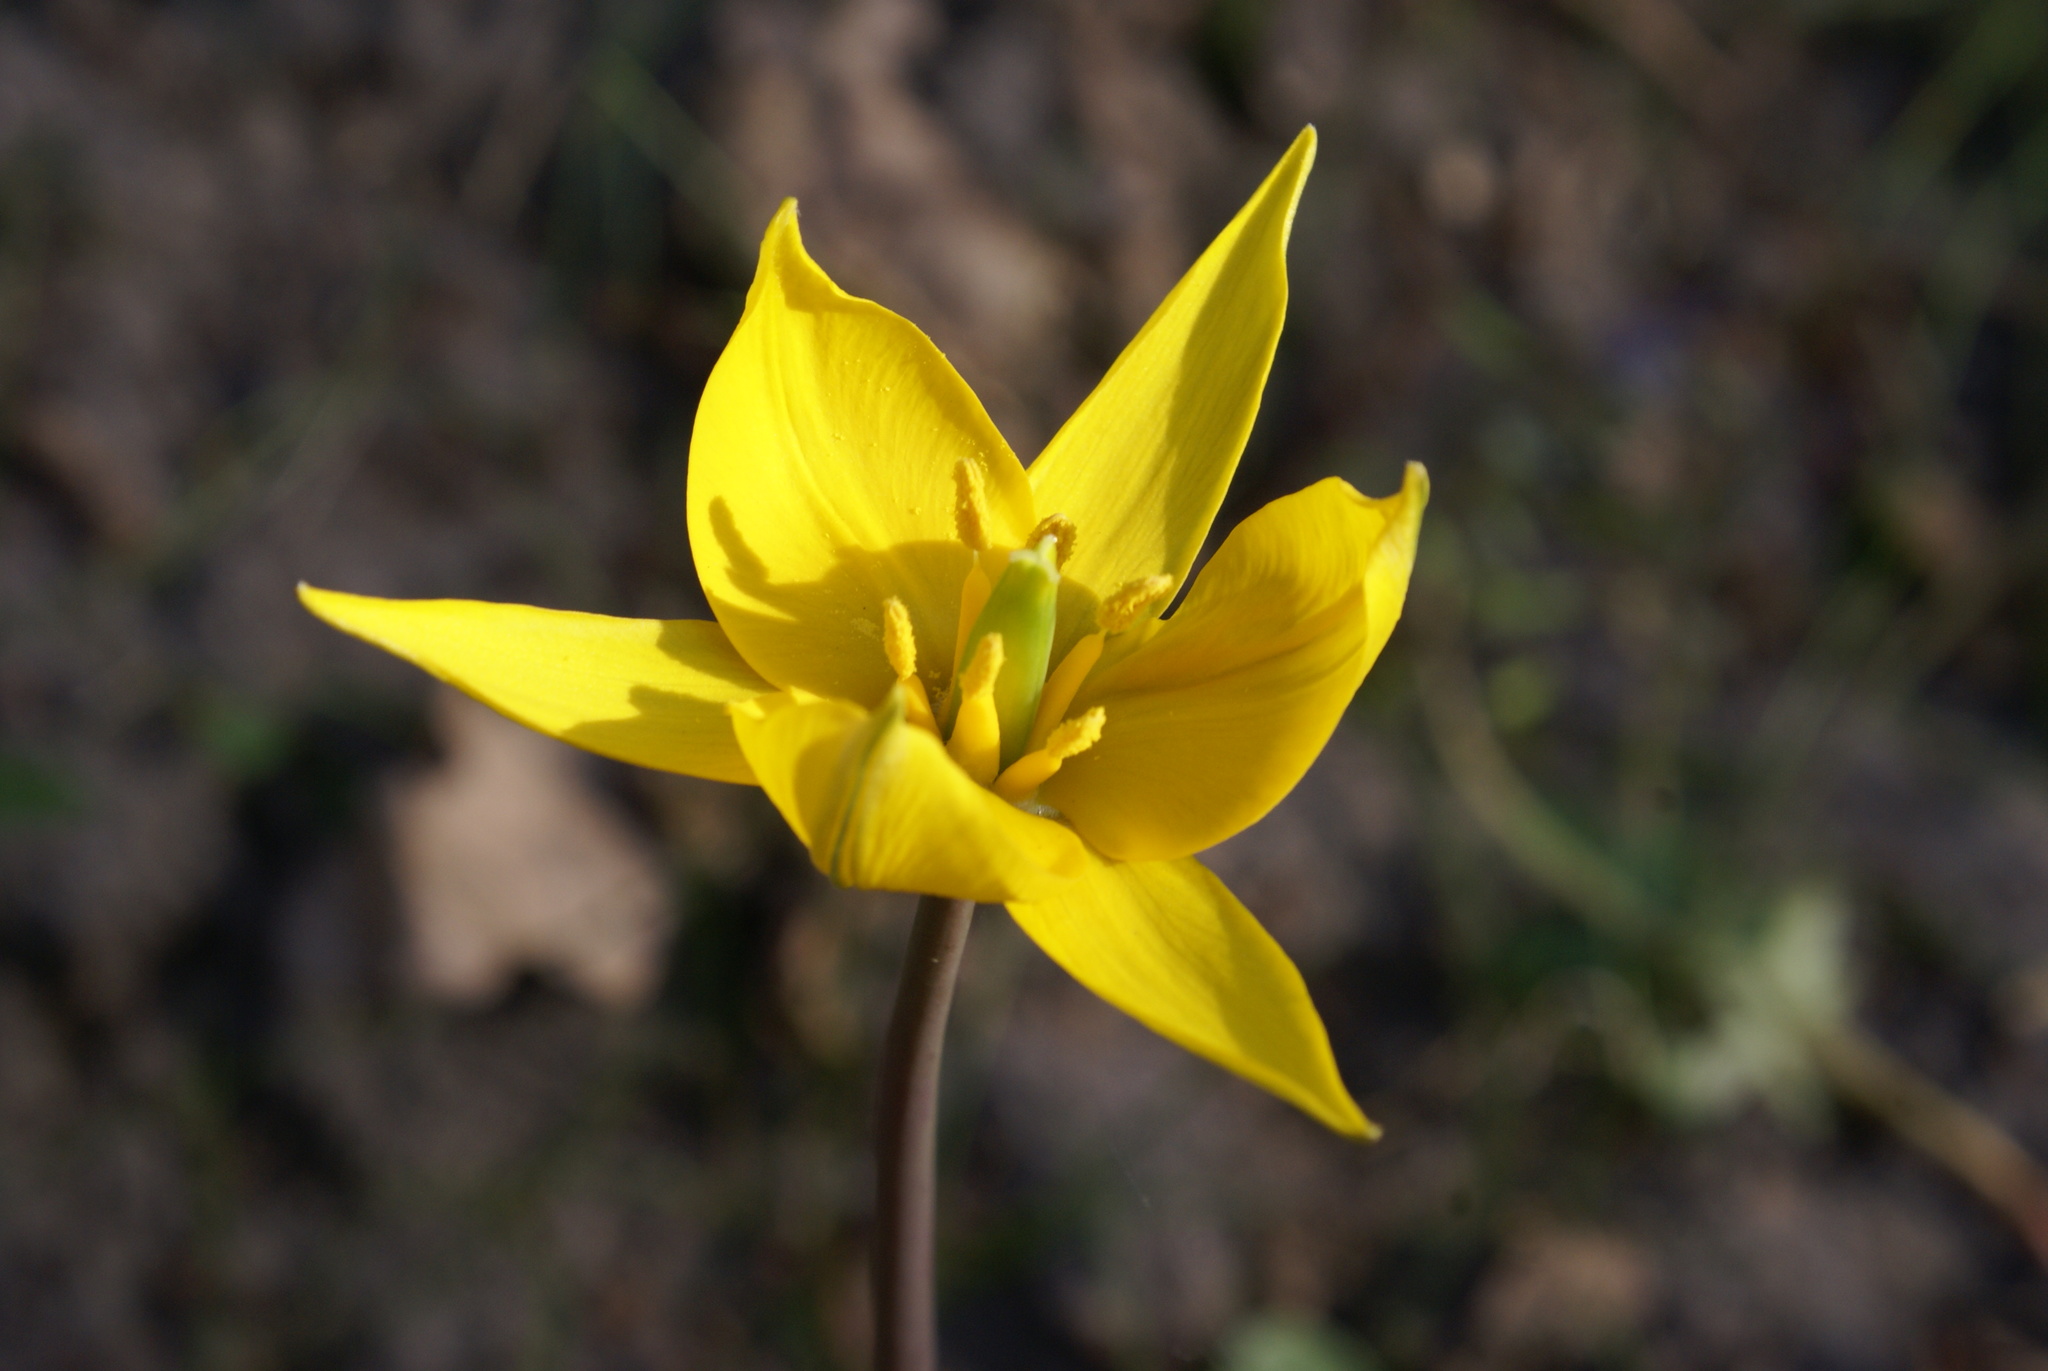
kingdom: Plantae
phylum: Tracheophyta
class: Liliopsida
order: Liliales
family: Liliaceae
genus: Tulipa
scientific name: Tulipa sylvestris
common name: Wild tulip
